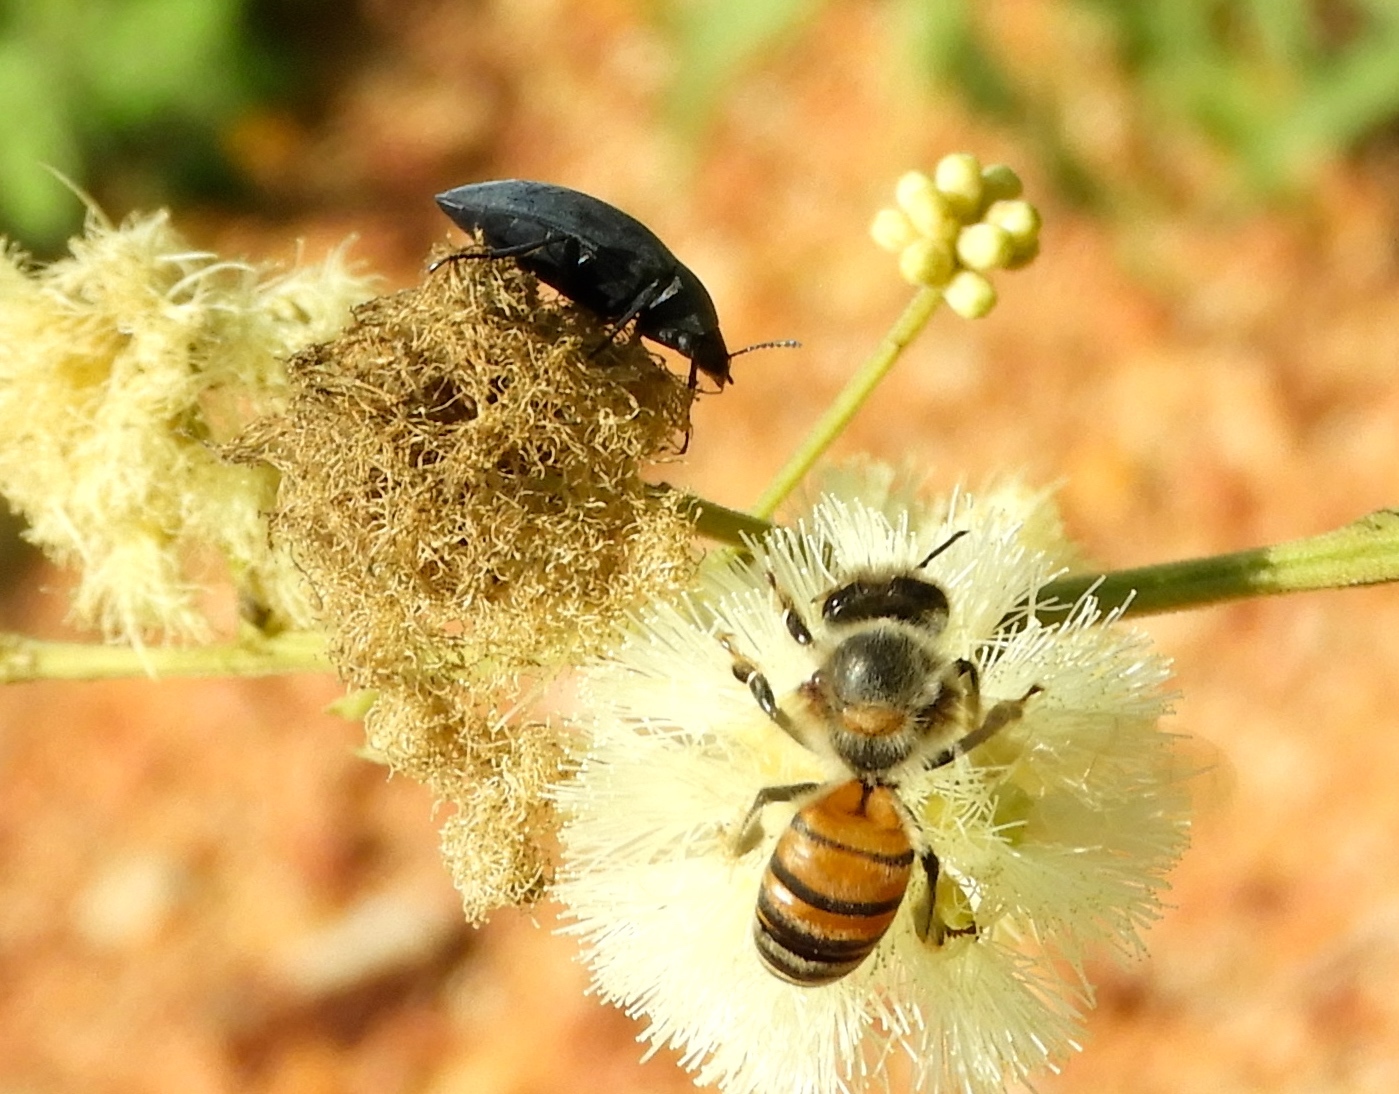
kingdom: Animalia
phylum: Arthropoda
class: Insecta
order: Hymenoptera
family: Apidae
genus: Apis
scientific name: Apis mellifera
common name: Honey bee
